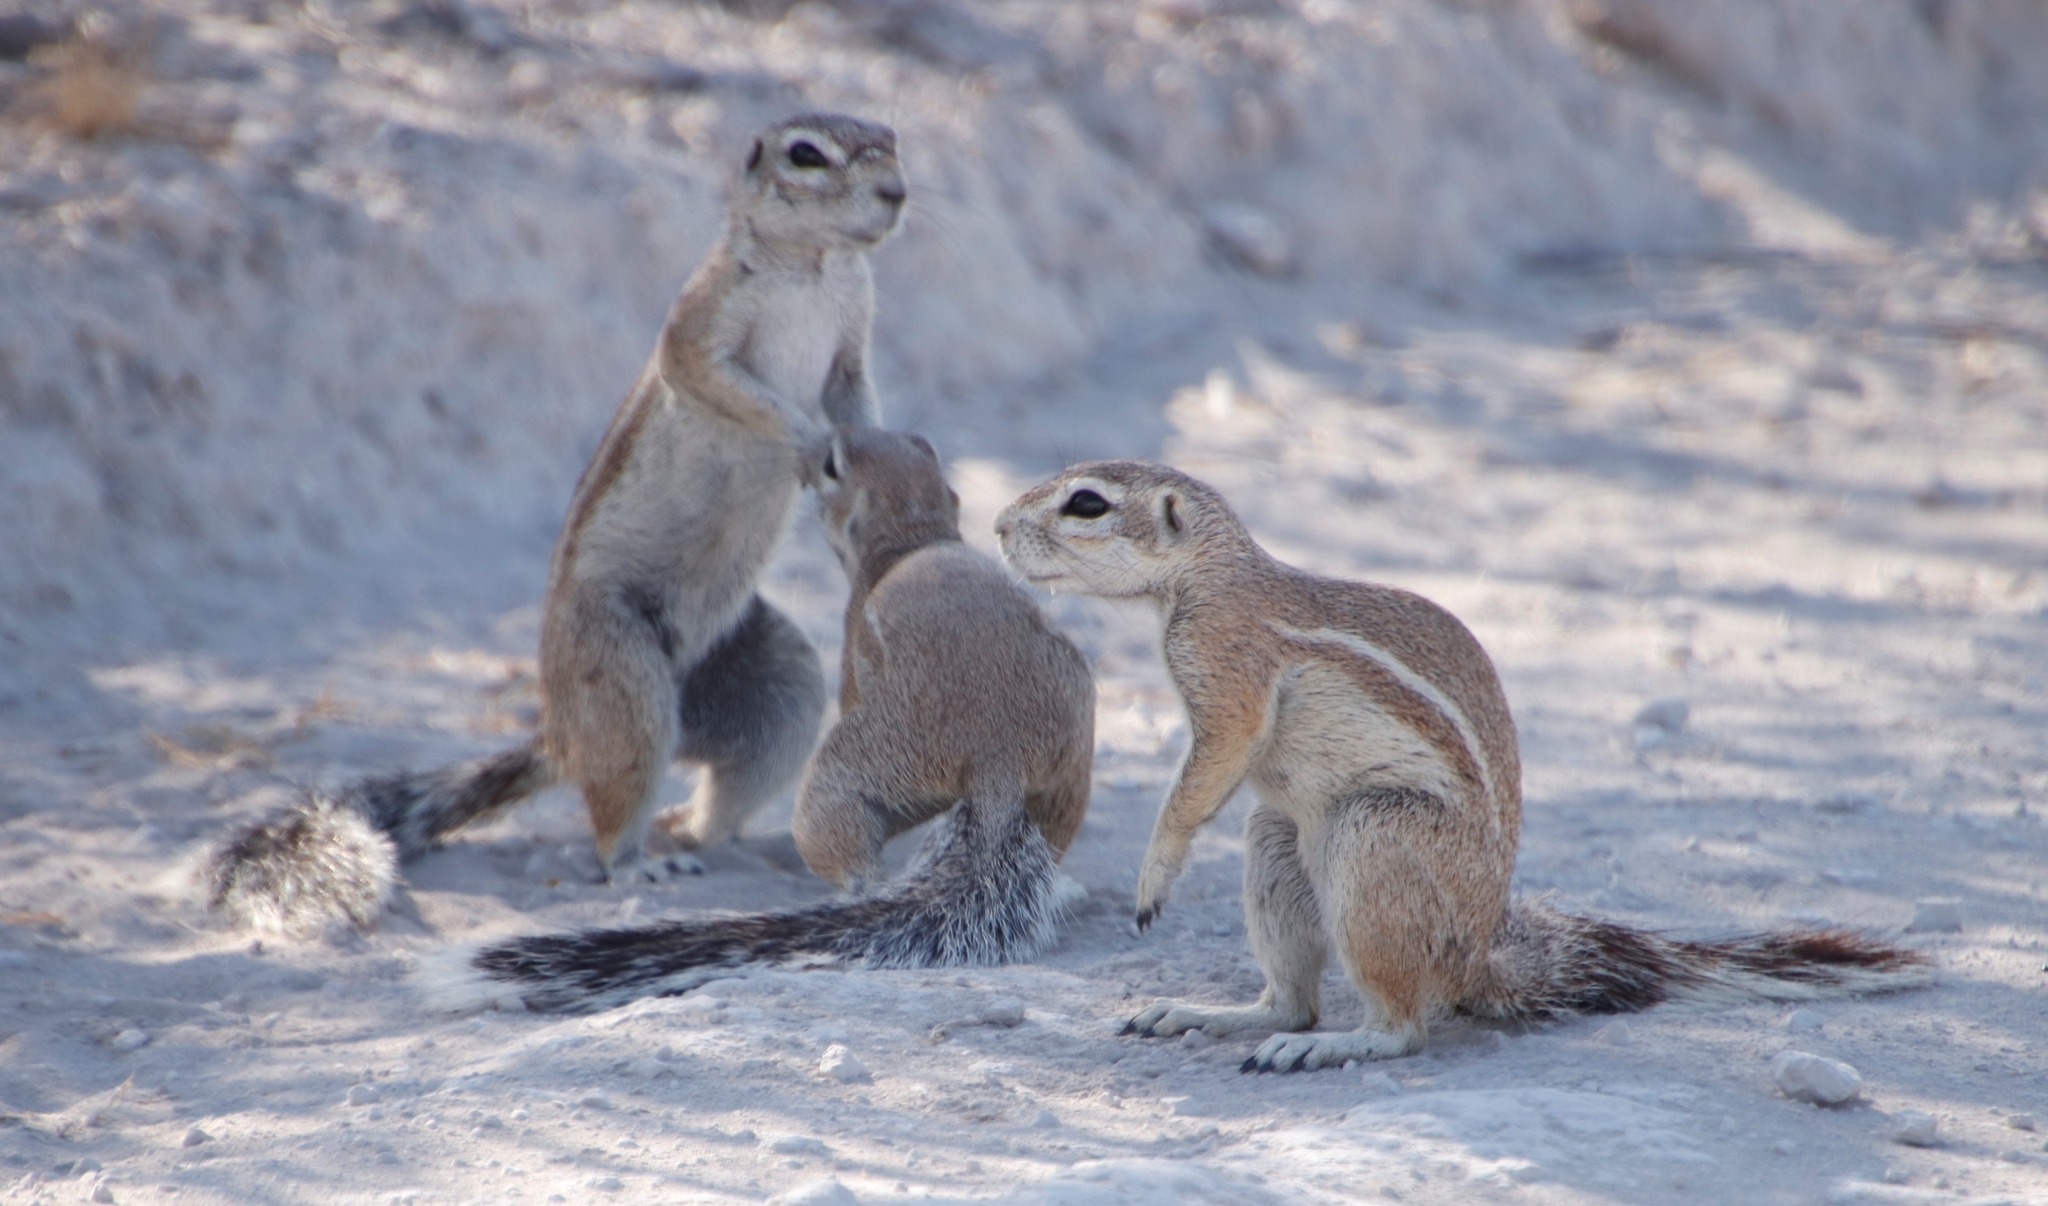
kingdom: Animalia
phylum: Chordata
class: Mammalia
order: Rodentia
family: Sciuridae
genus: Xerus
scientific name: Xerus inauris
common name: South african ground squirrel
